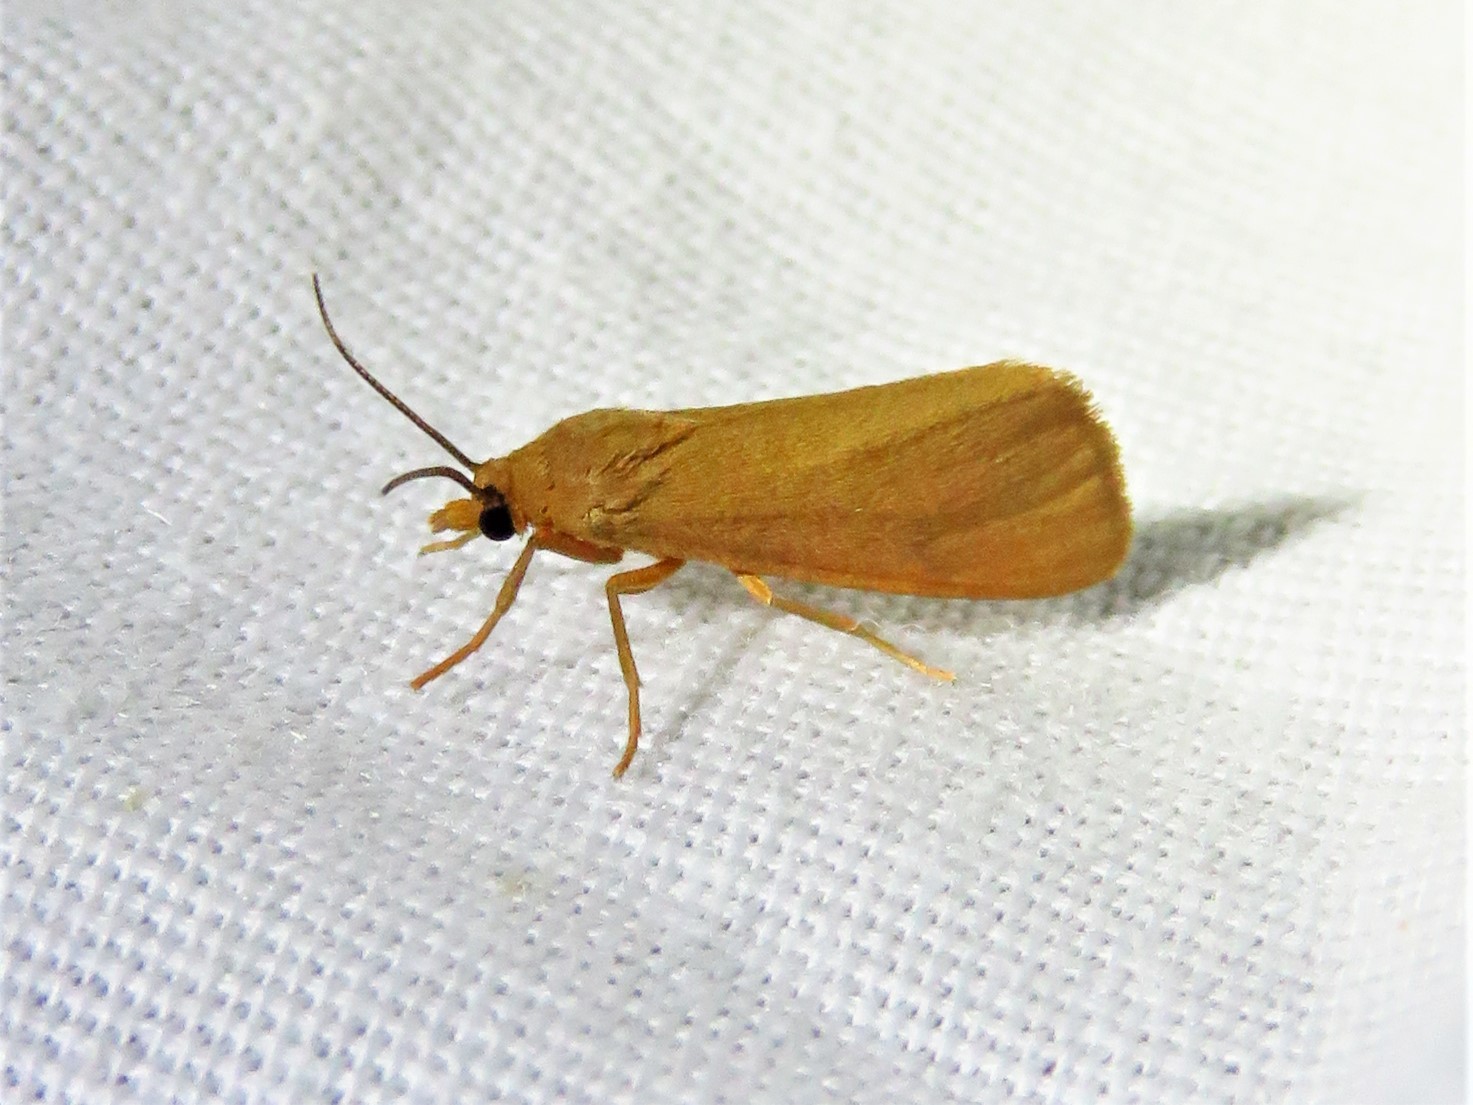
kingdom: Animalia
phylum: Arthropoda
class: Insecta
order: Lepidoptera
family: Erebidae
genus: Virbia
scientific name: Virbia aurantiaca
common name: Orange virbia moth
